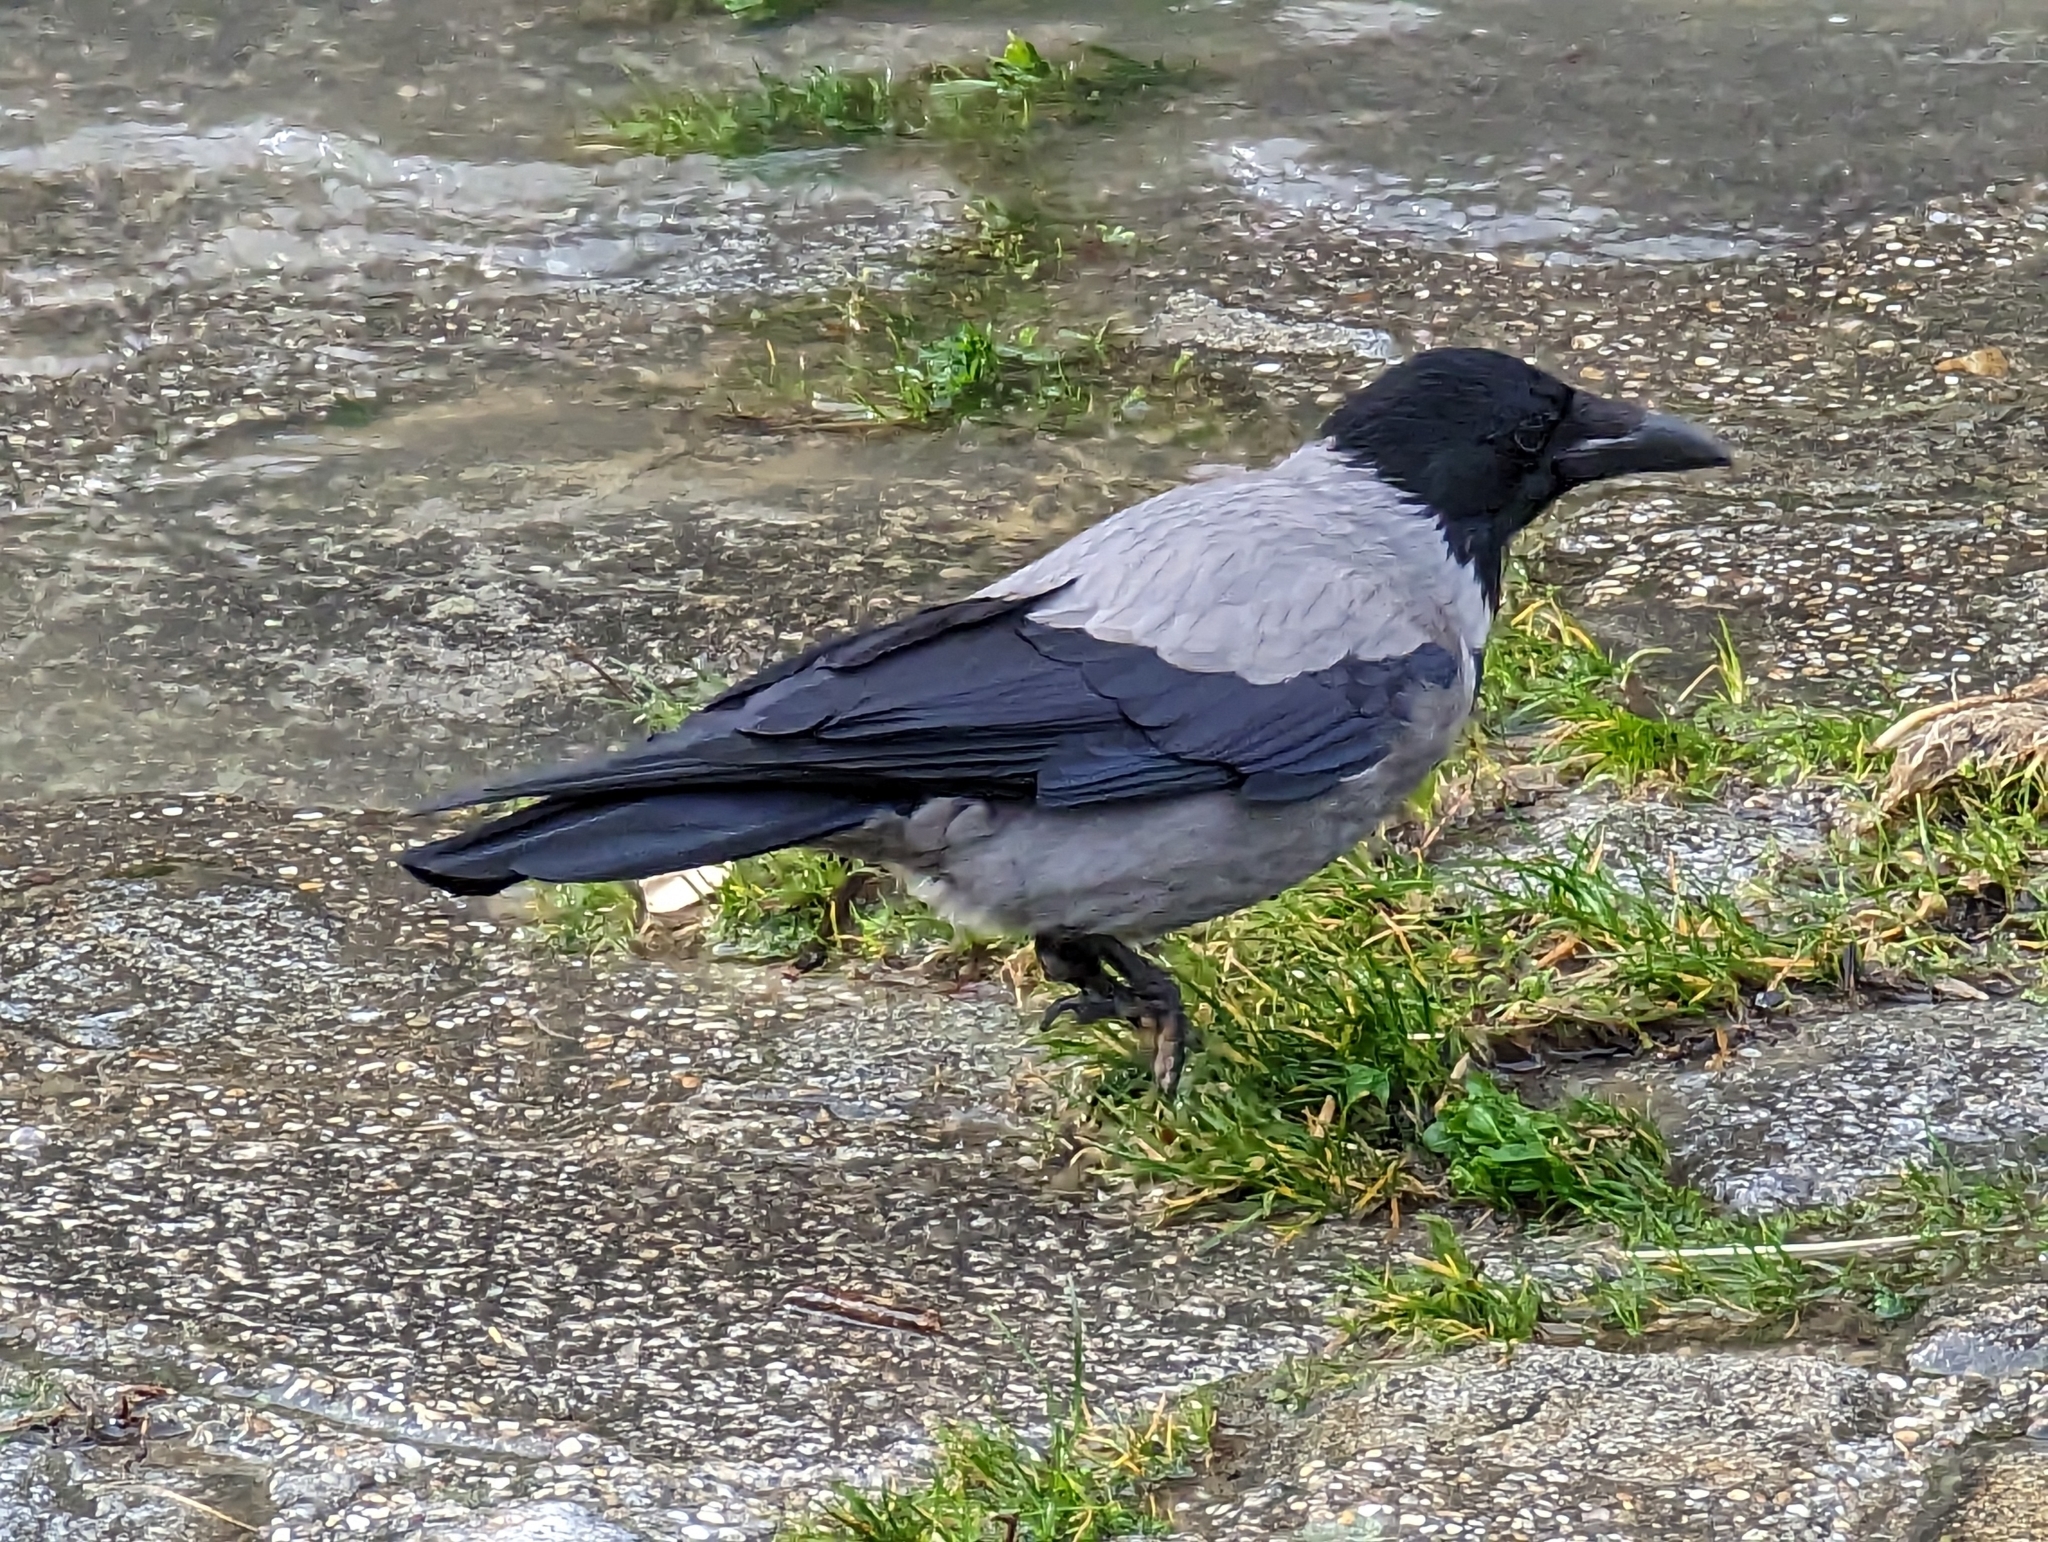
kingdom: Animalia
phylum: Chordata
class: Aves
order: Passeriformes
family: Corvidae
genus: Corvus
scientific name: Corvus cornix
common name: Hooded crow
